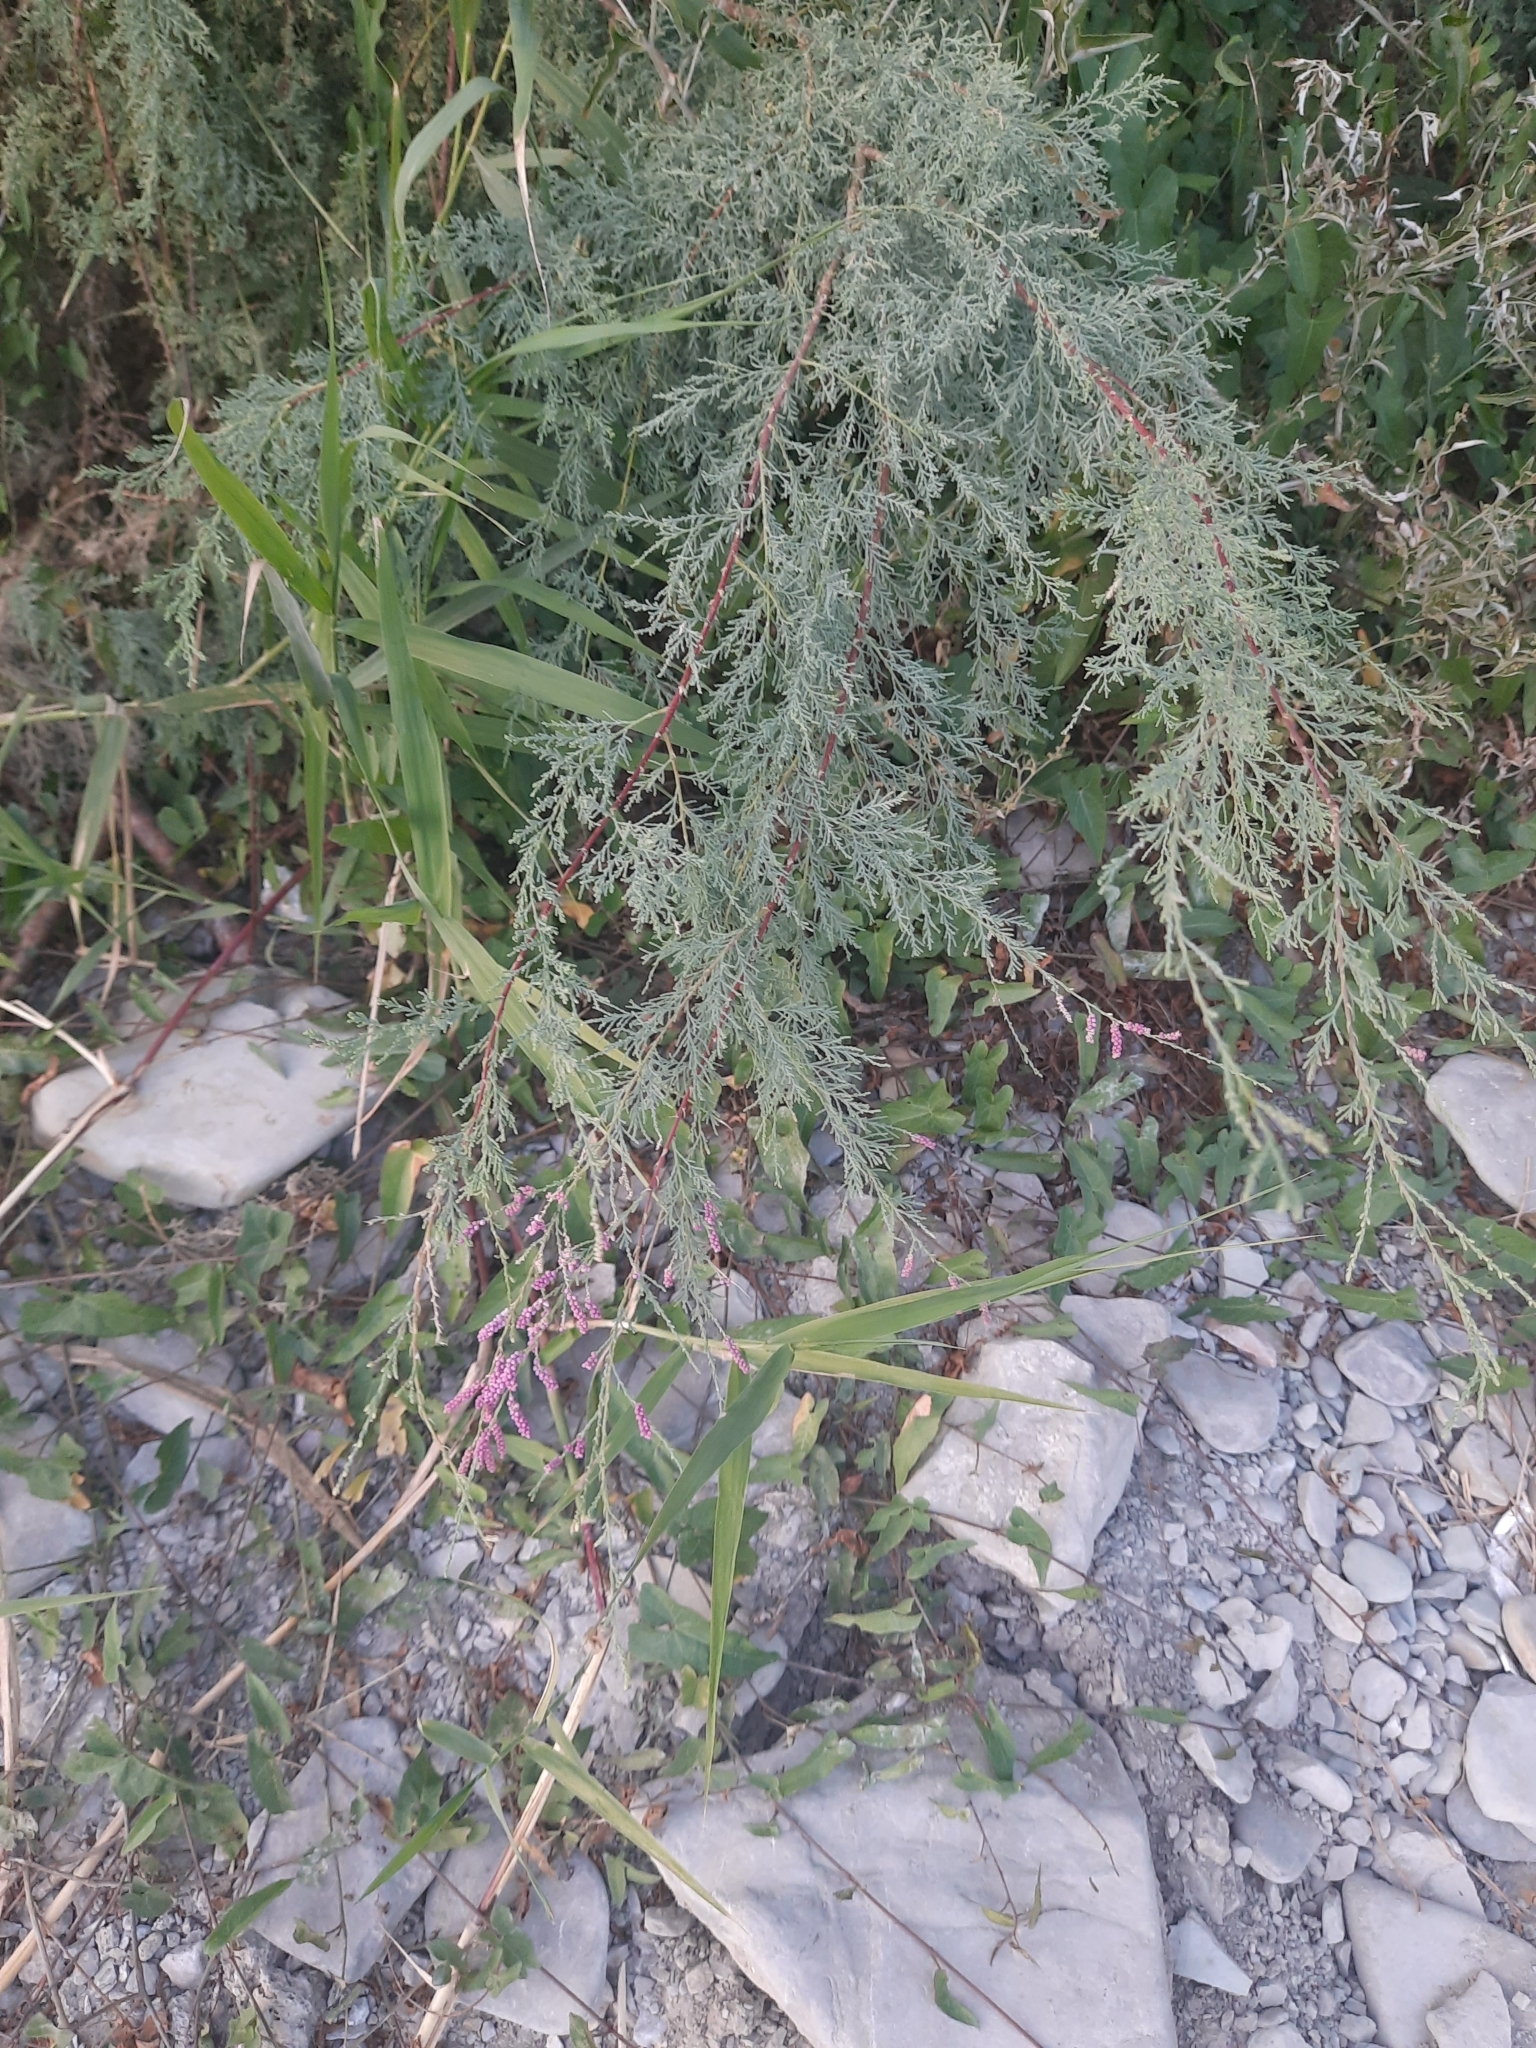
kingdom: Plantae
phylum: Tracheophyta
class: Magnoliopsida
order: Caryophyllales
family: Tamaricaceae
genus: Tamarix
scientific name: Tamarix ramosissima
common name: Pink tamarisk
